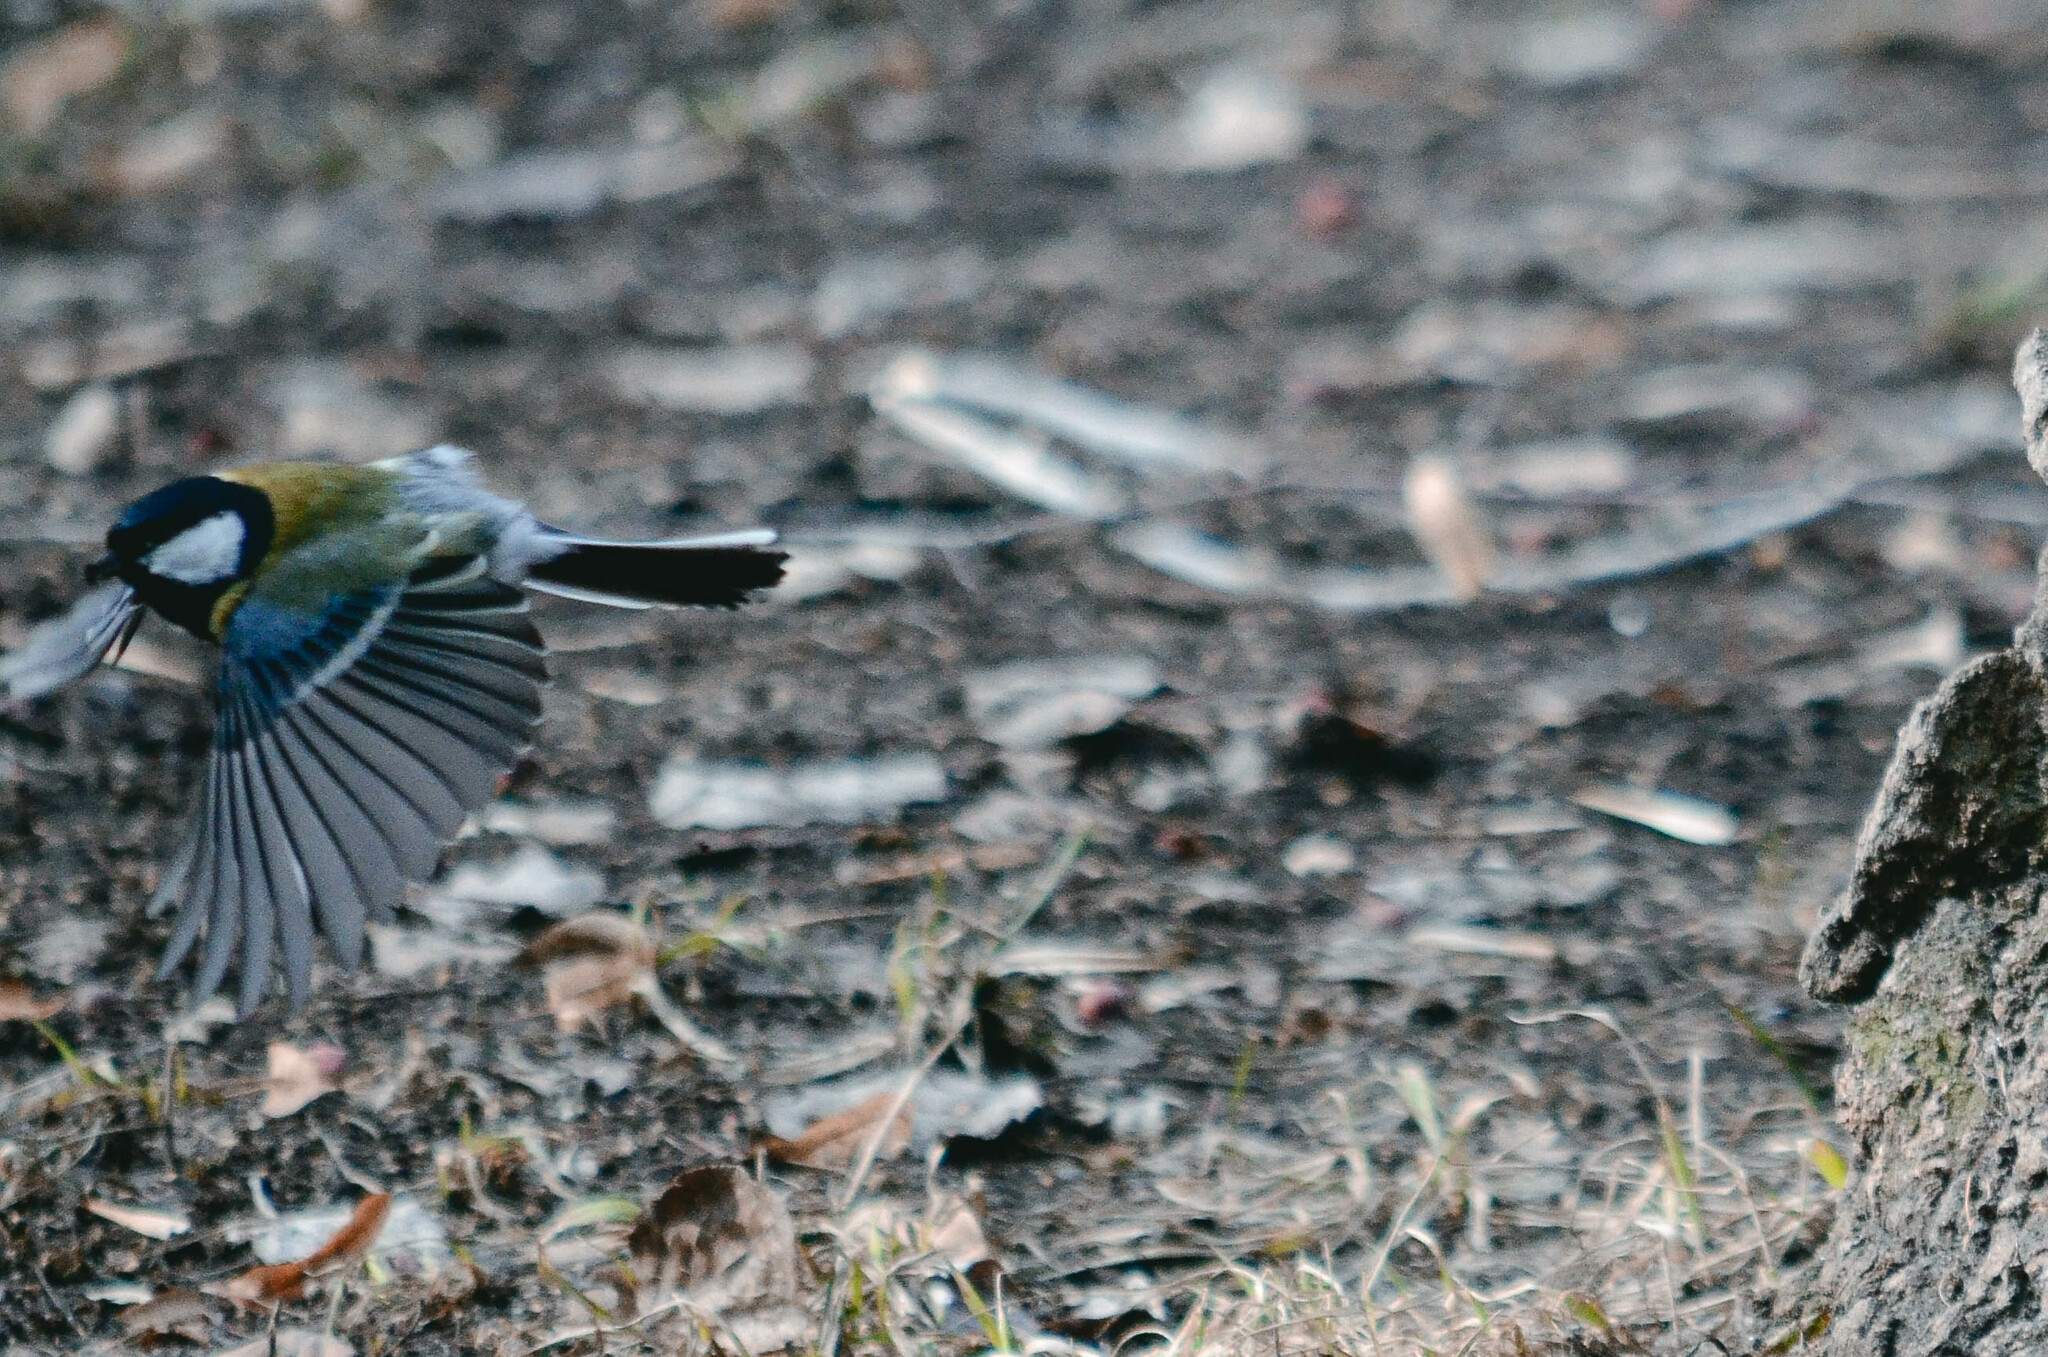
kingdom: Animalia
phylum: Chordata
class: Aves
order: Passeriformes
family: Paridae
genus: Parus
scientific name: Parus major
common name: Great tit
